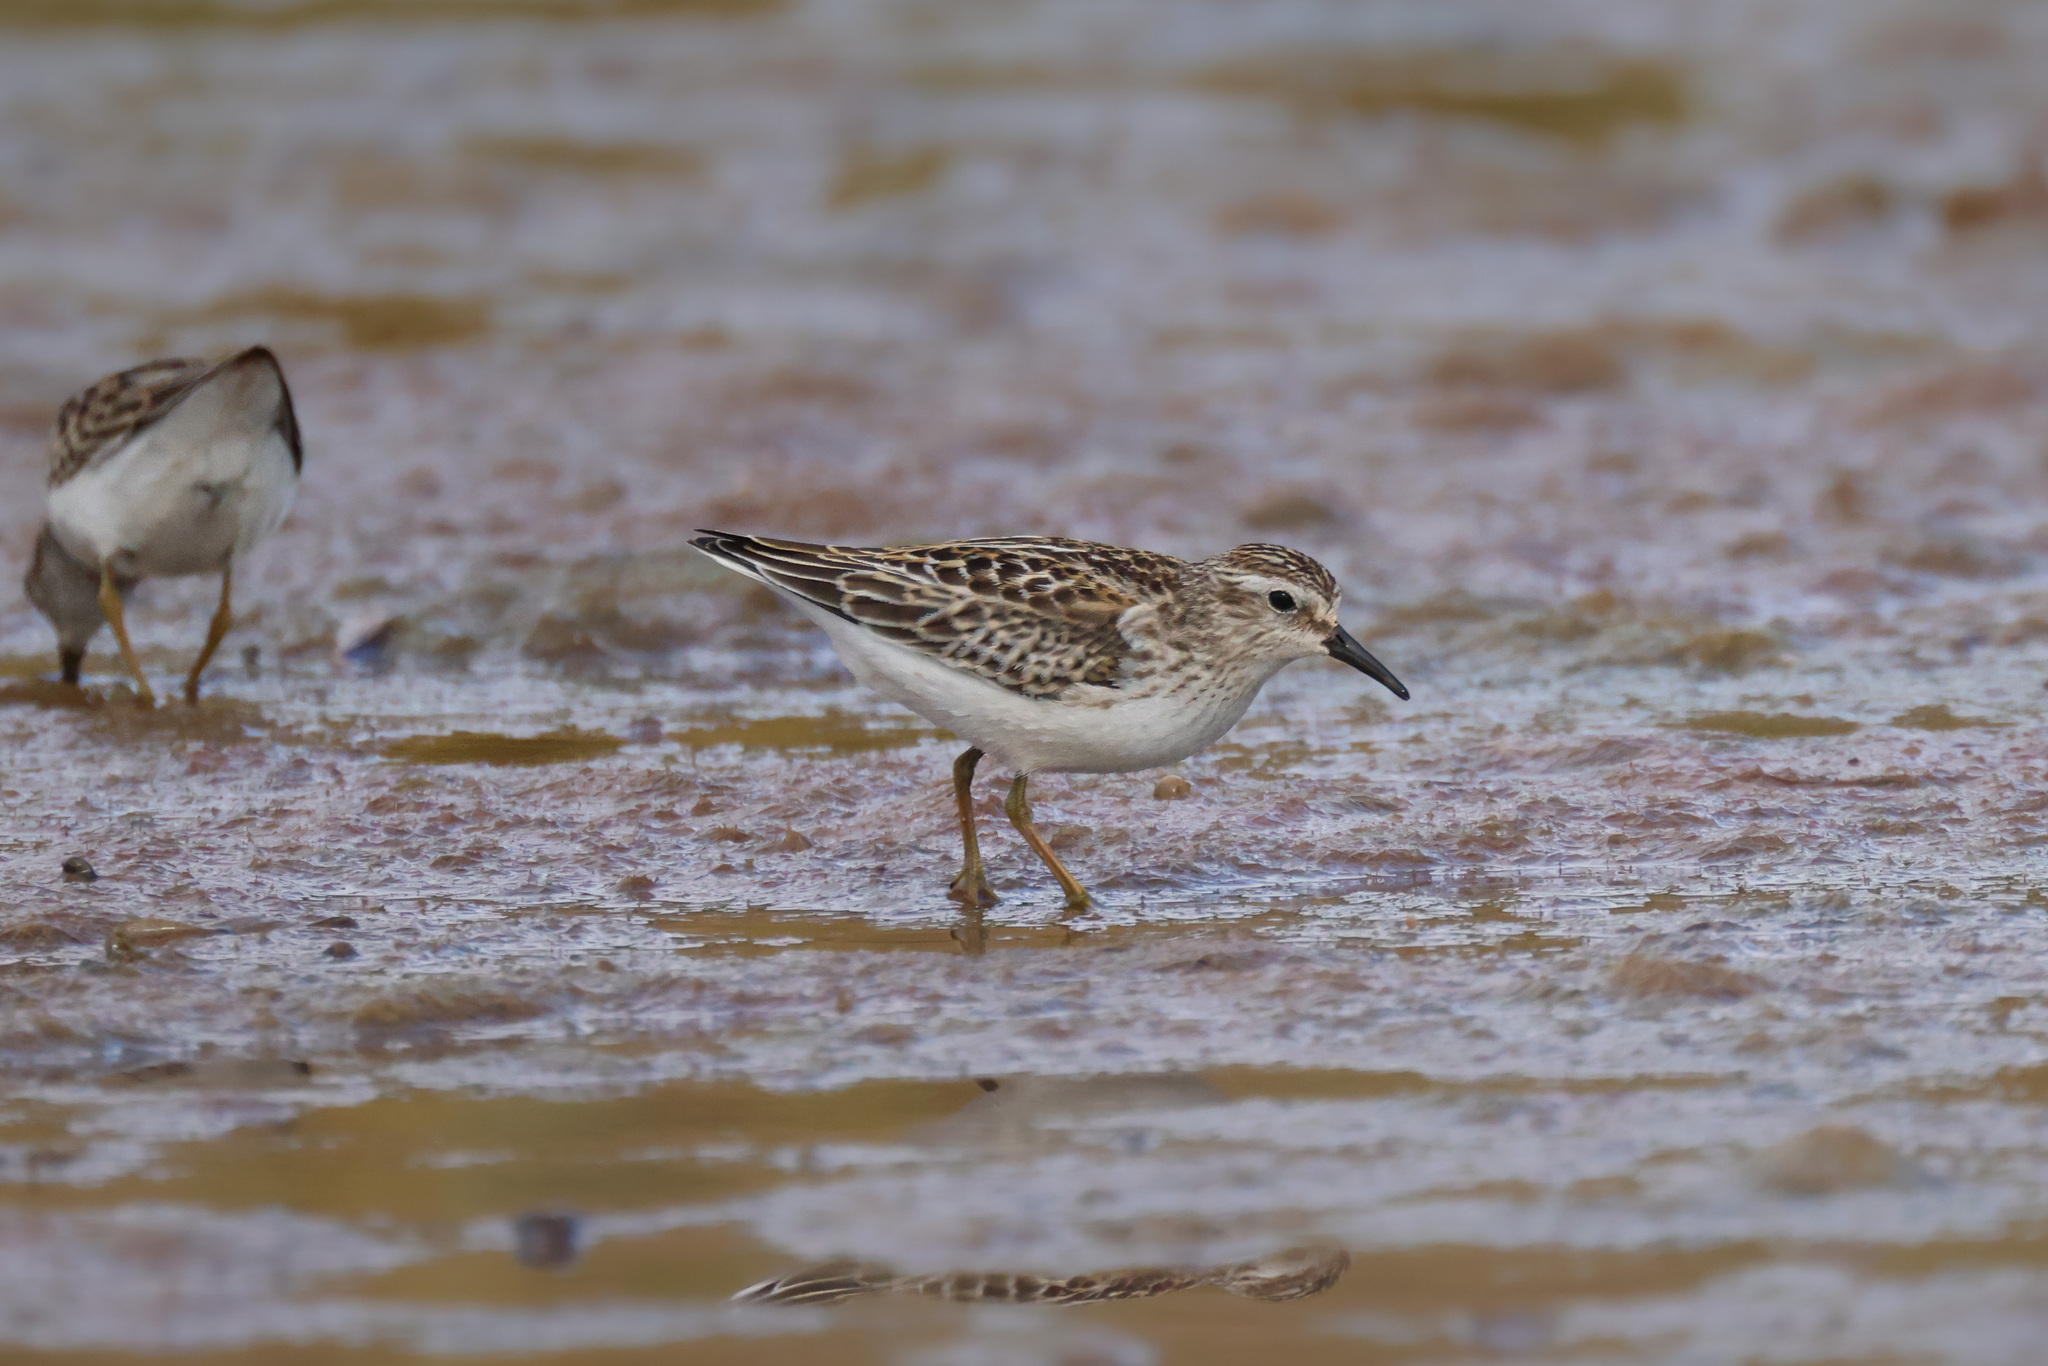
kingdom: Animalia
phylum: Chordata
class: Aves
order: Charadriiformes
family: Scolopacidae
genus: Calidris
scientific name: Calidris minutilla
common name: Least sandpiper
